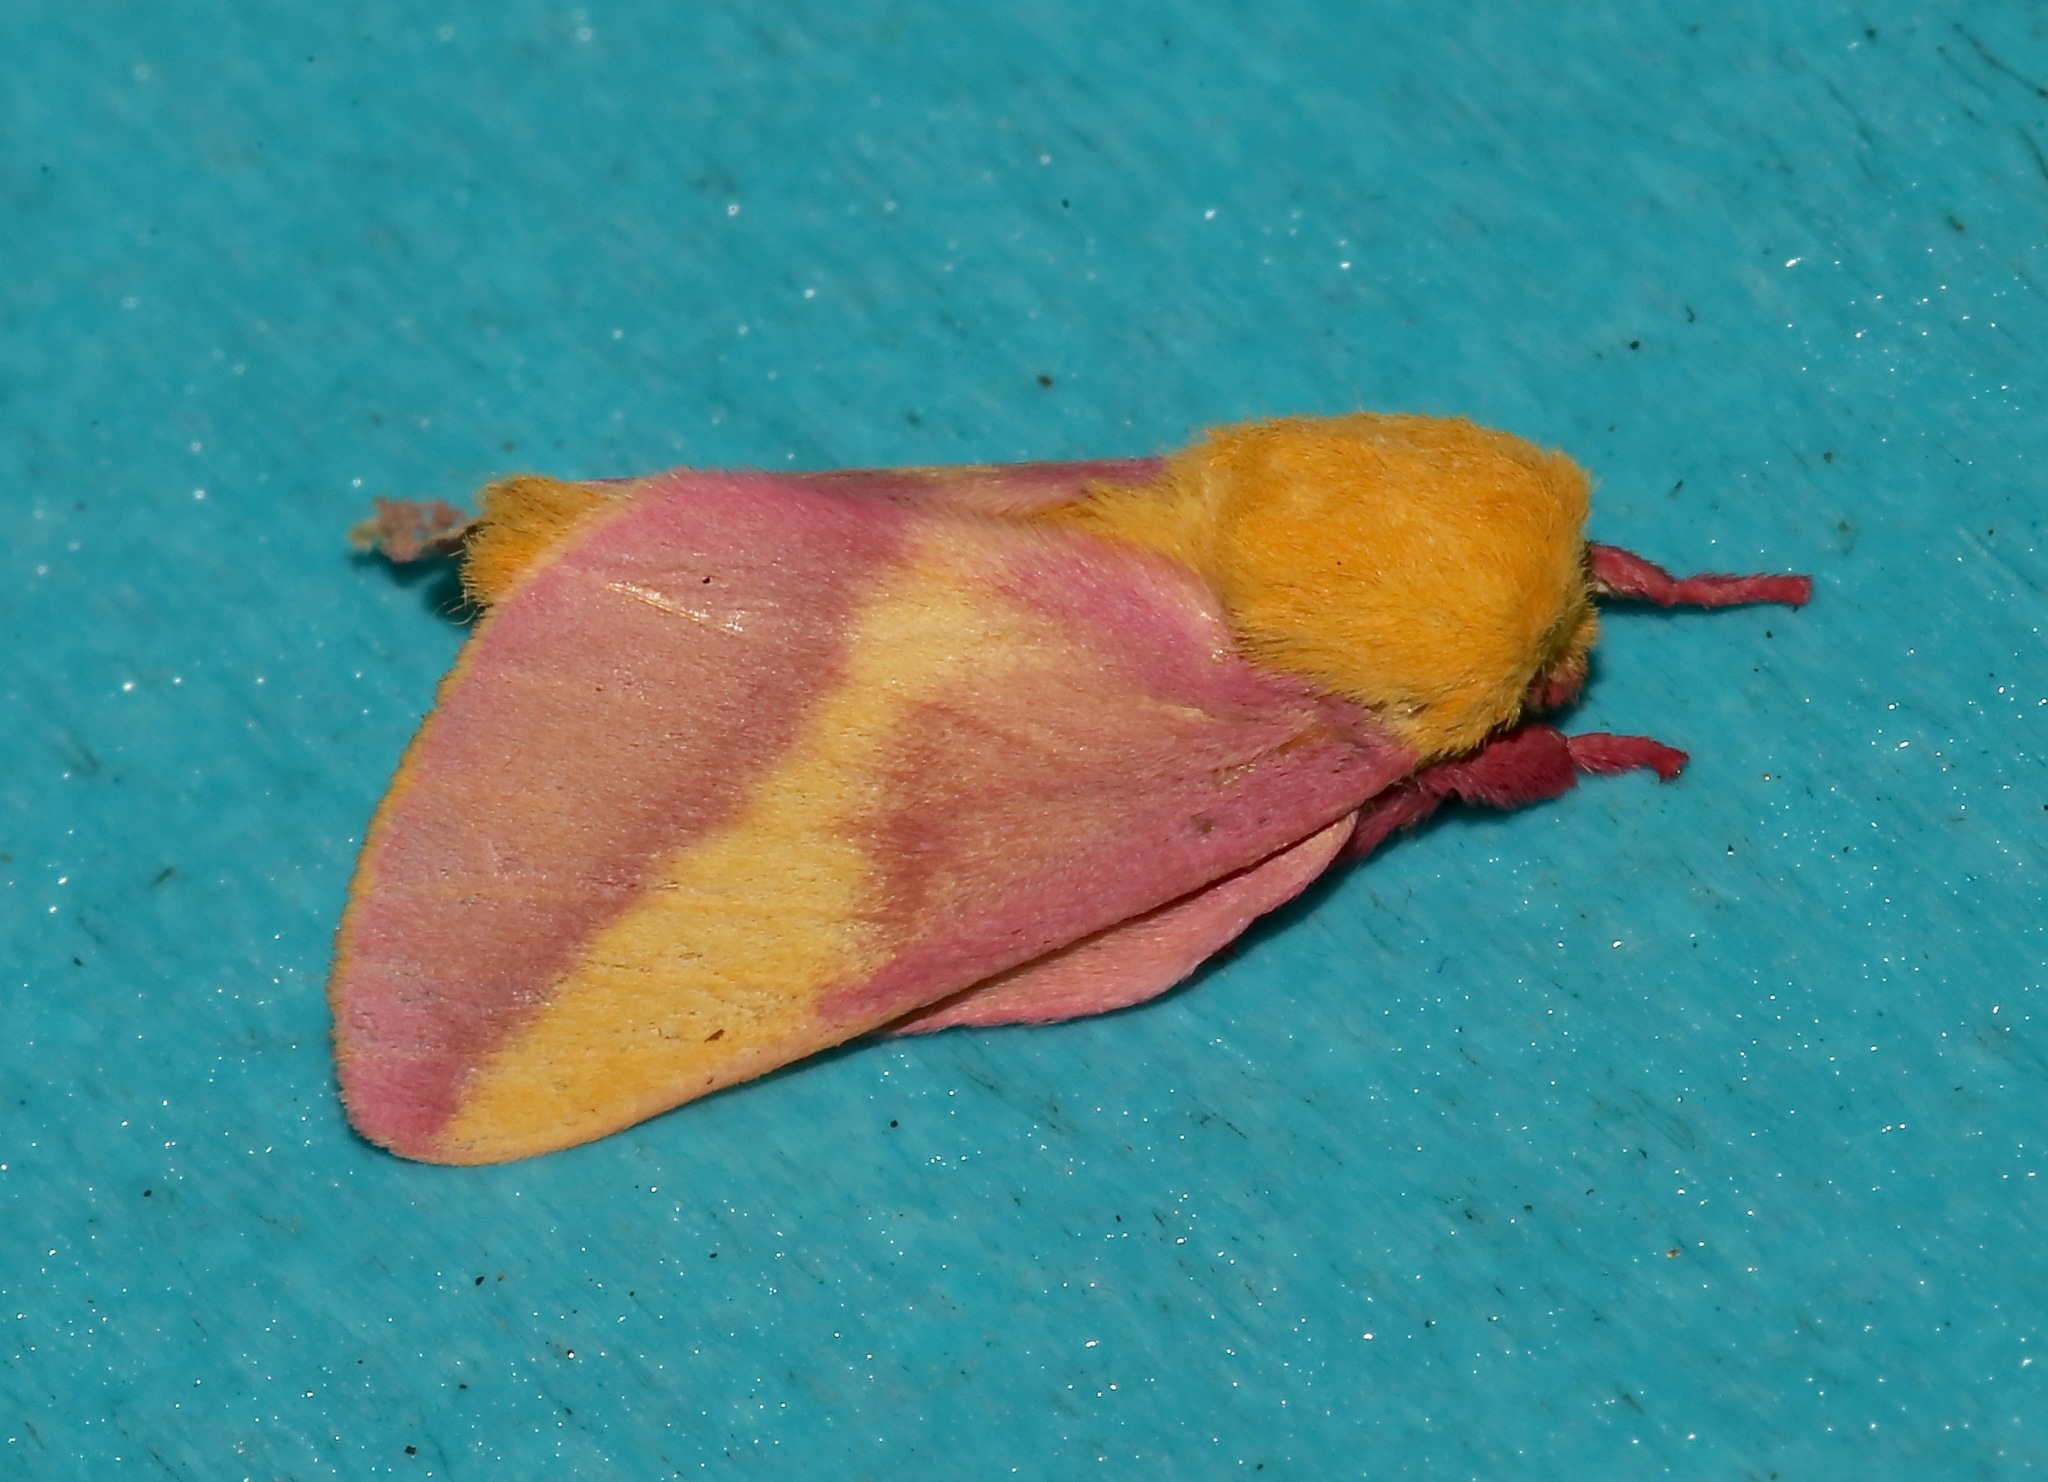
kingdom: Animalia
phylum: Arthropoda
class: Insecta
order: Lepidoptera
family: Saturniidae
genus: Dryocampa
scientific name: Dryocampa rubicunda
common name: Rosy maple moth
